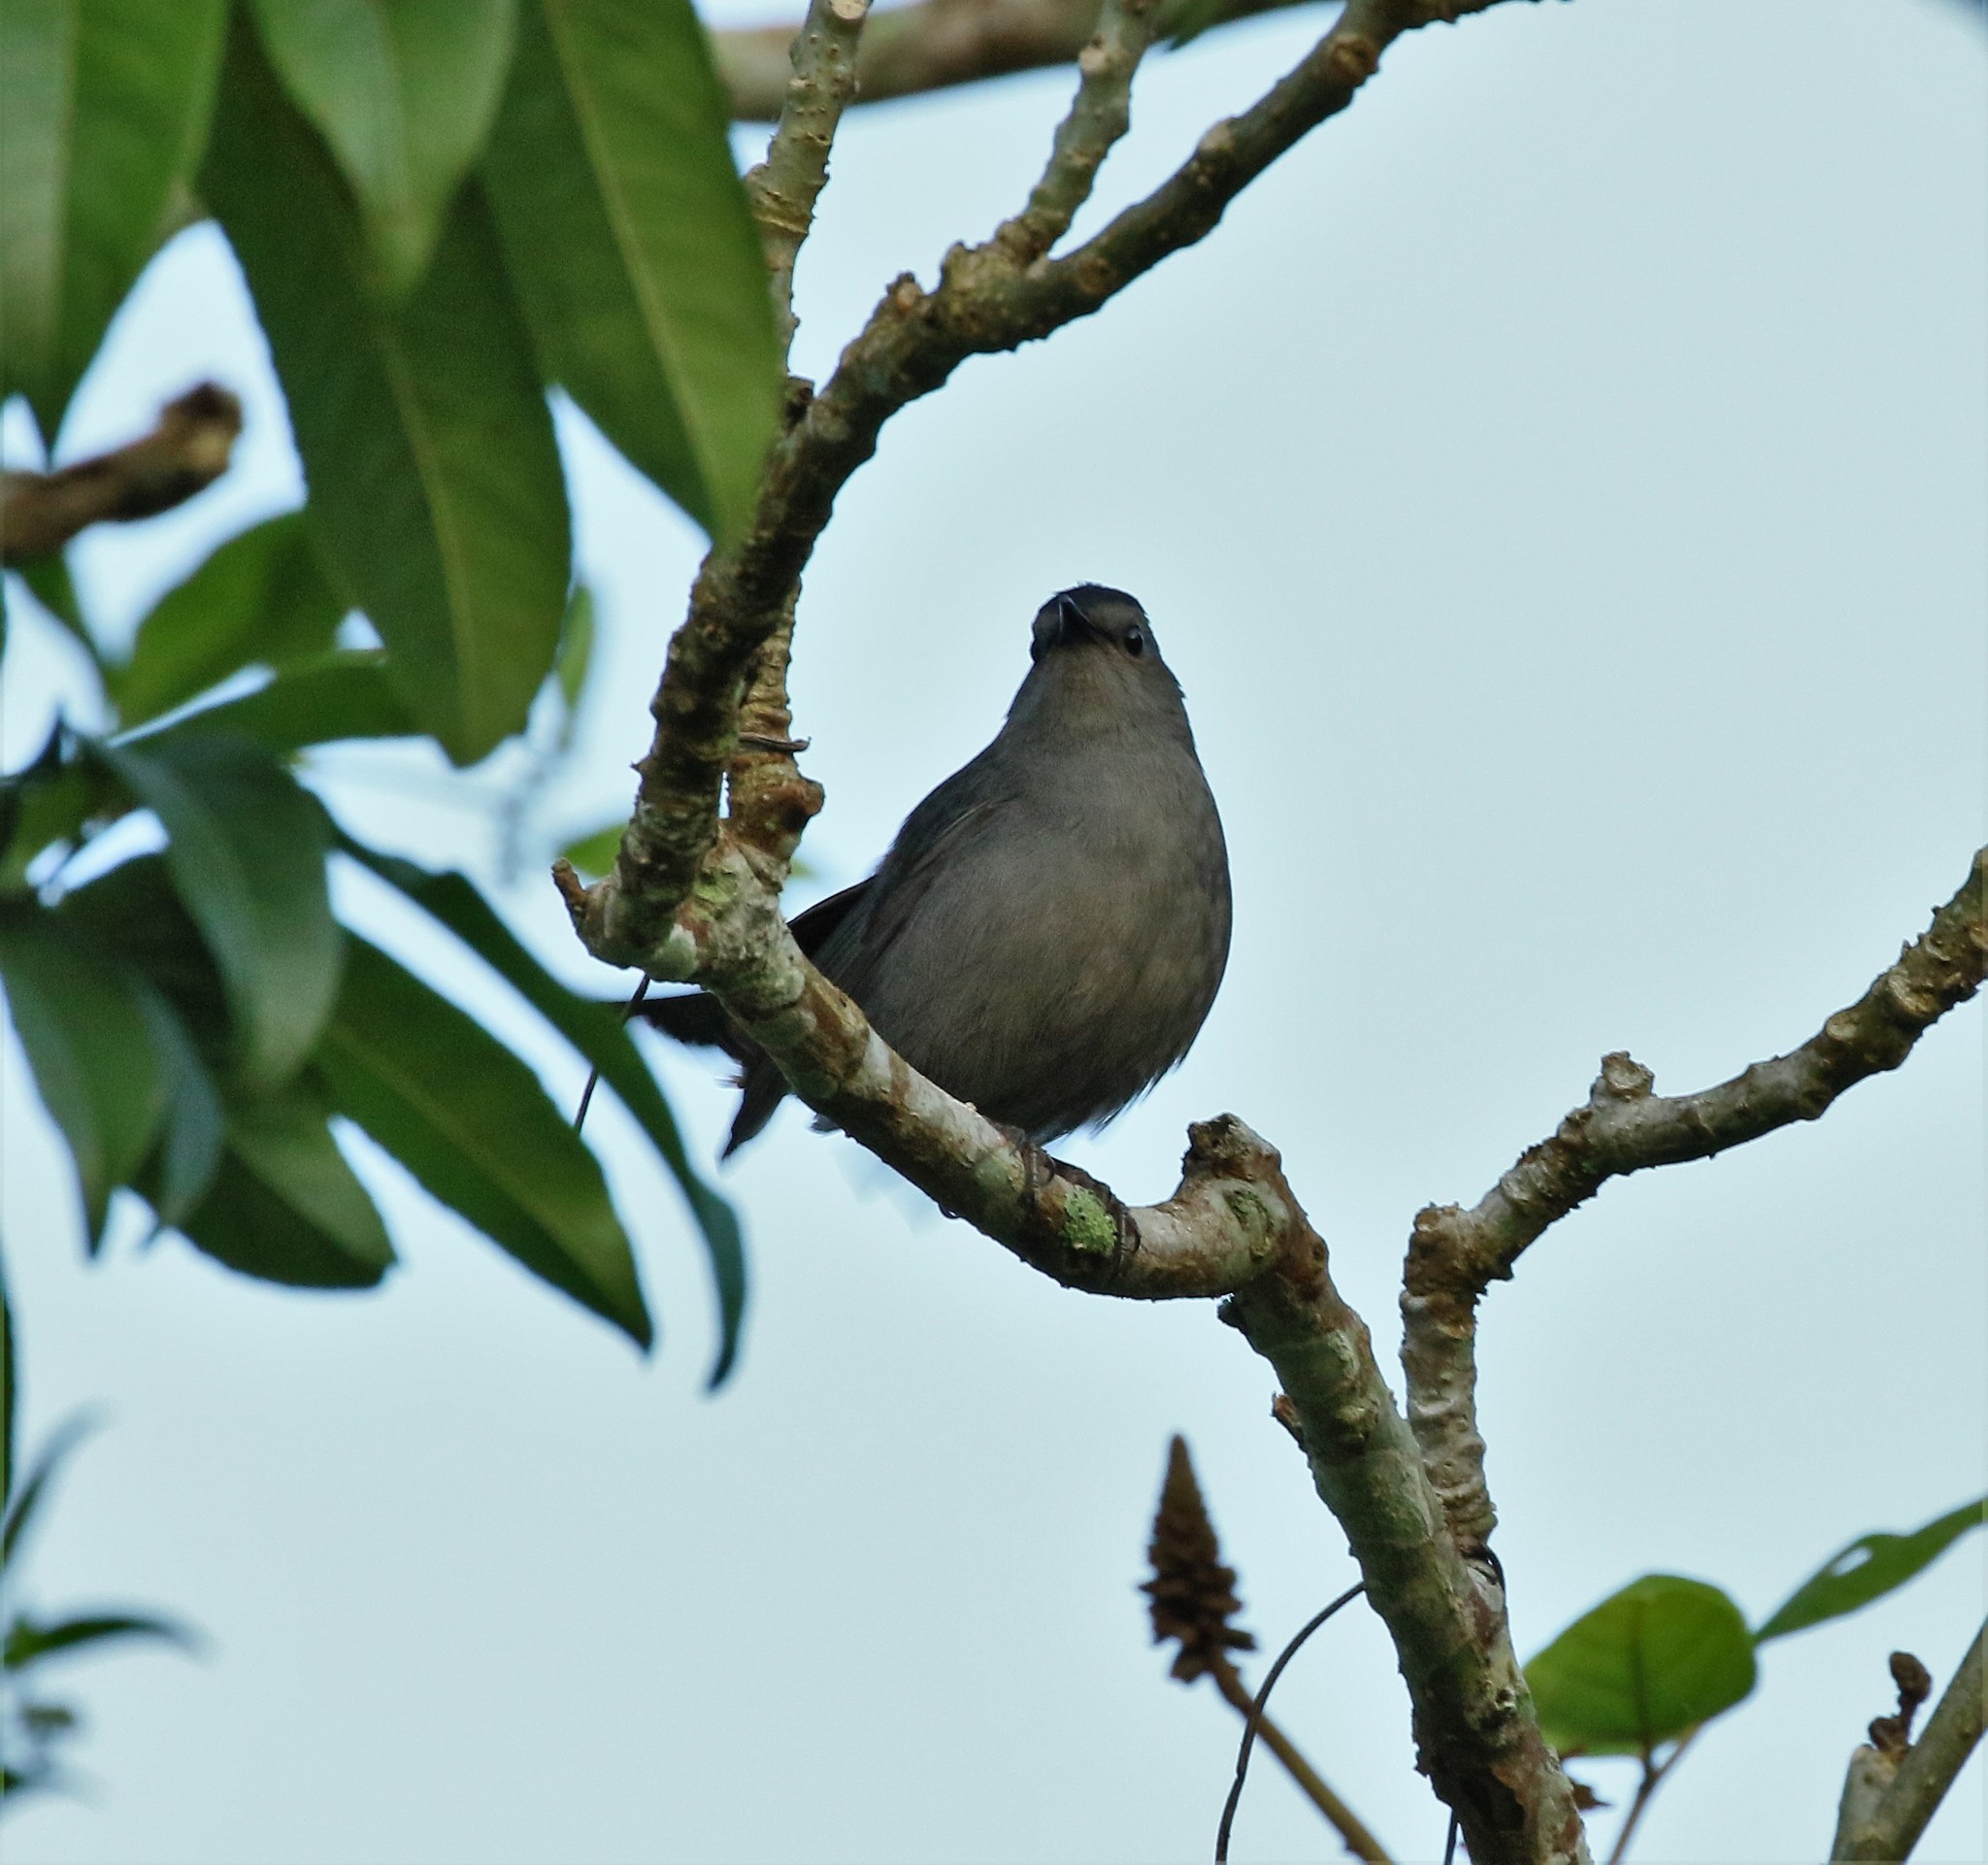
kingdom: Animalia
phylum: Chordata
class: Aves
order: Passeriformes
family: Mimidae
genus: Dumetella
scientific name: Dumetella carolinensis
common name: Gray catbird
